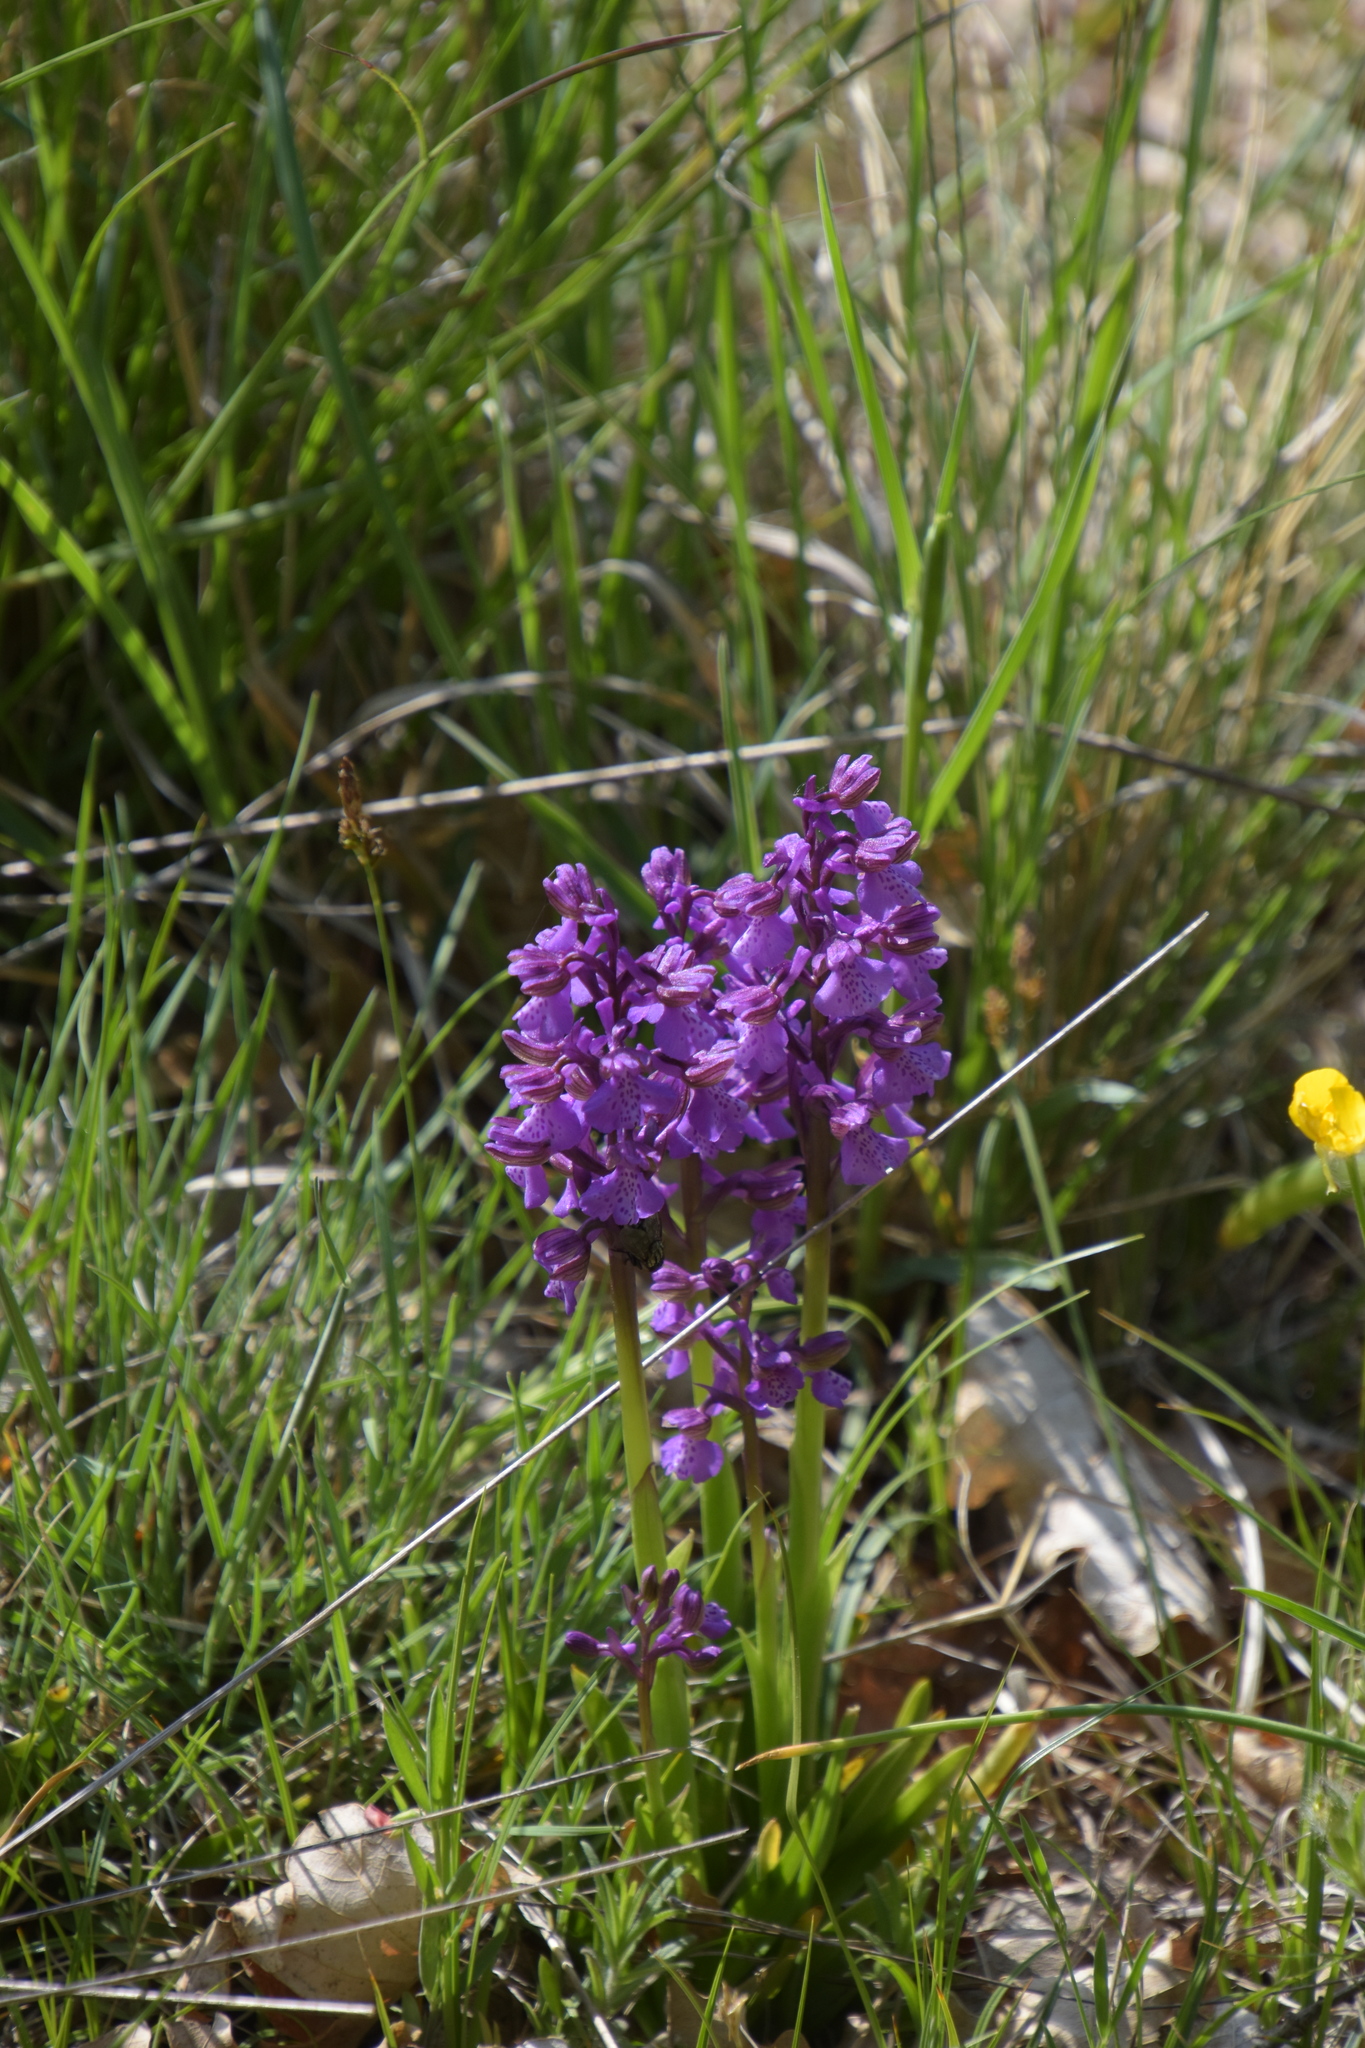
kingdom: Plantae
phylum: Tracheophyta
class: Liliopsida
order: Asparagales
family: Orchidaceae
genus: Anacamptis
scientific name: Anacamptis morio
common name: Green-winged orchid
